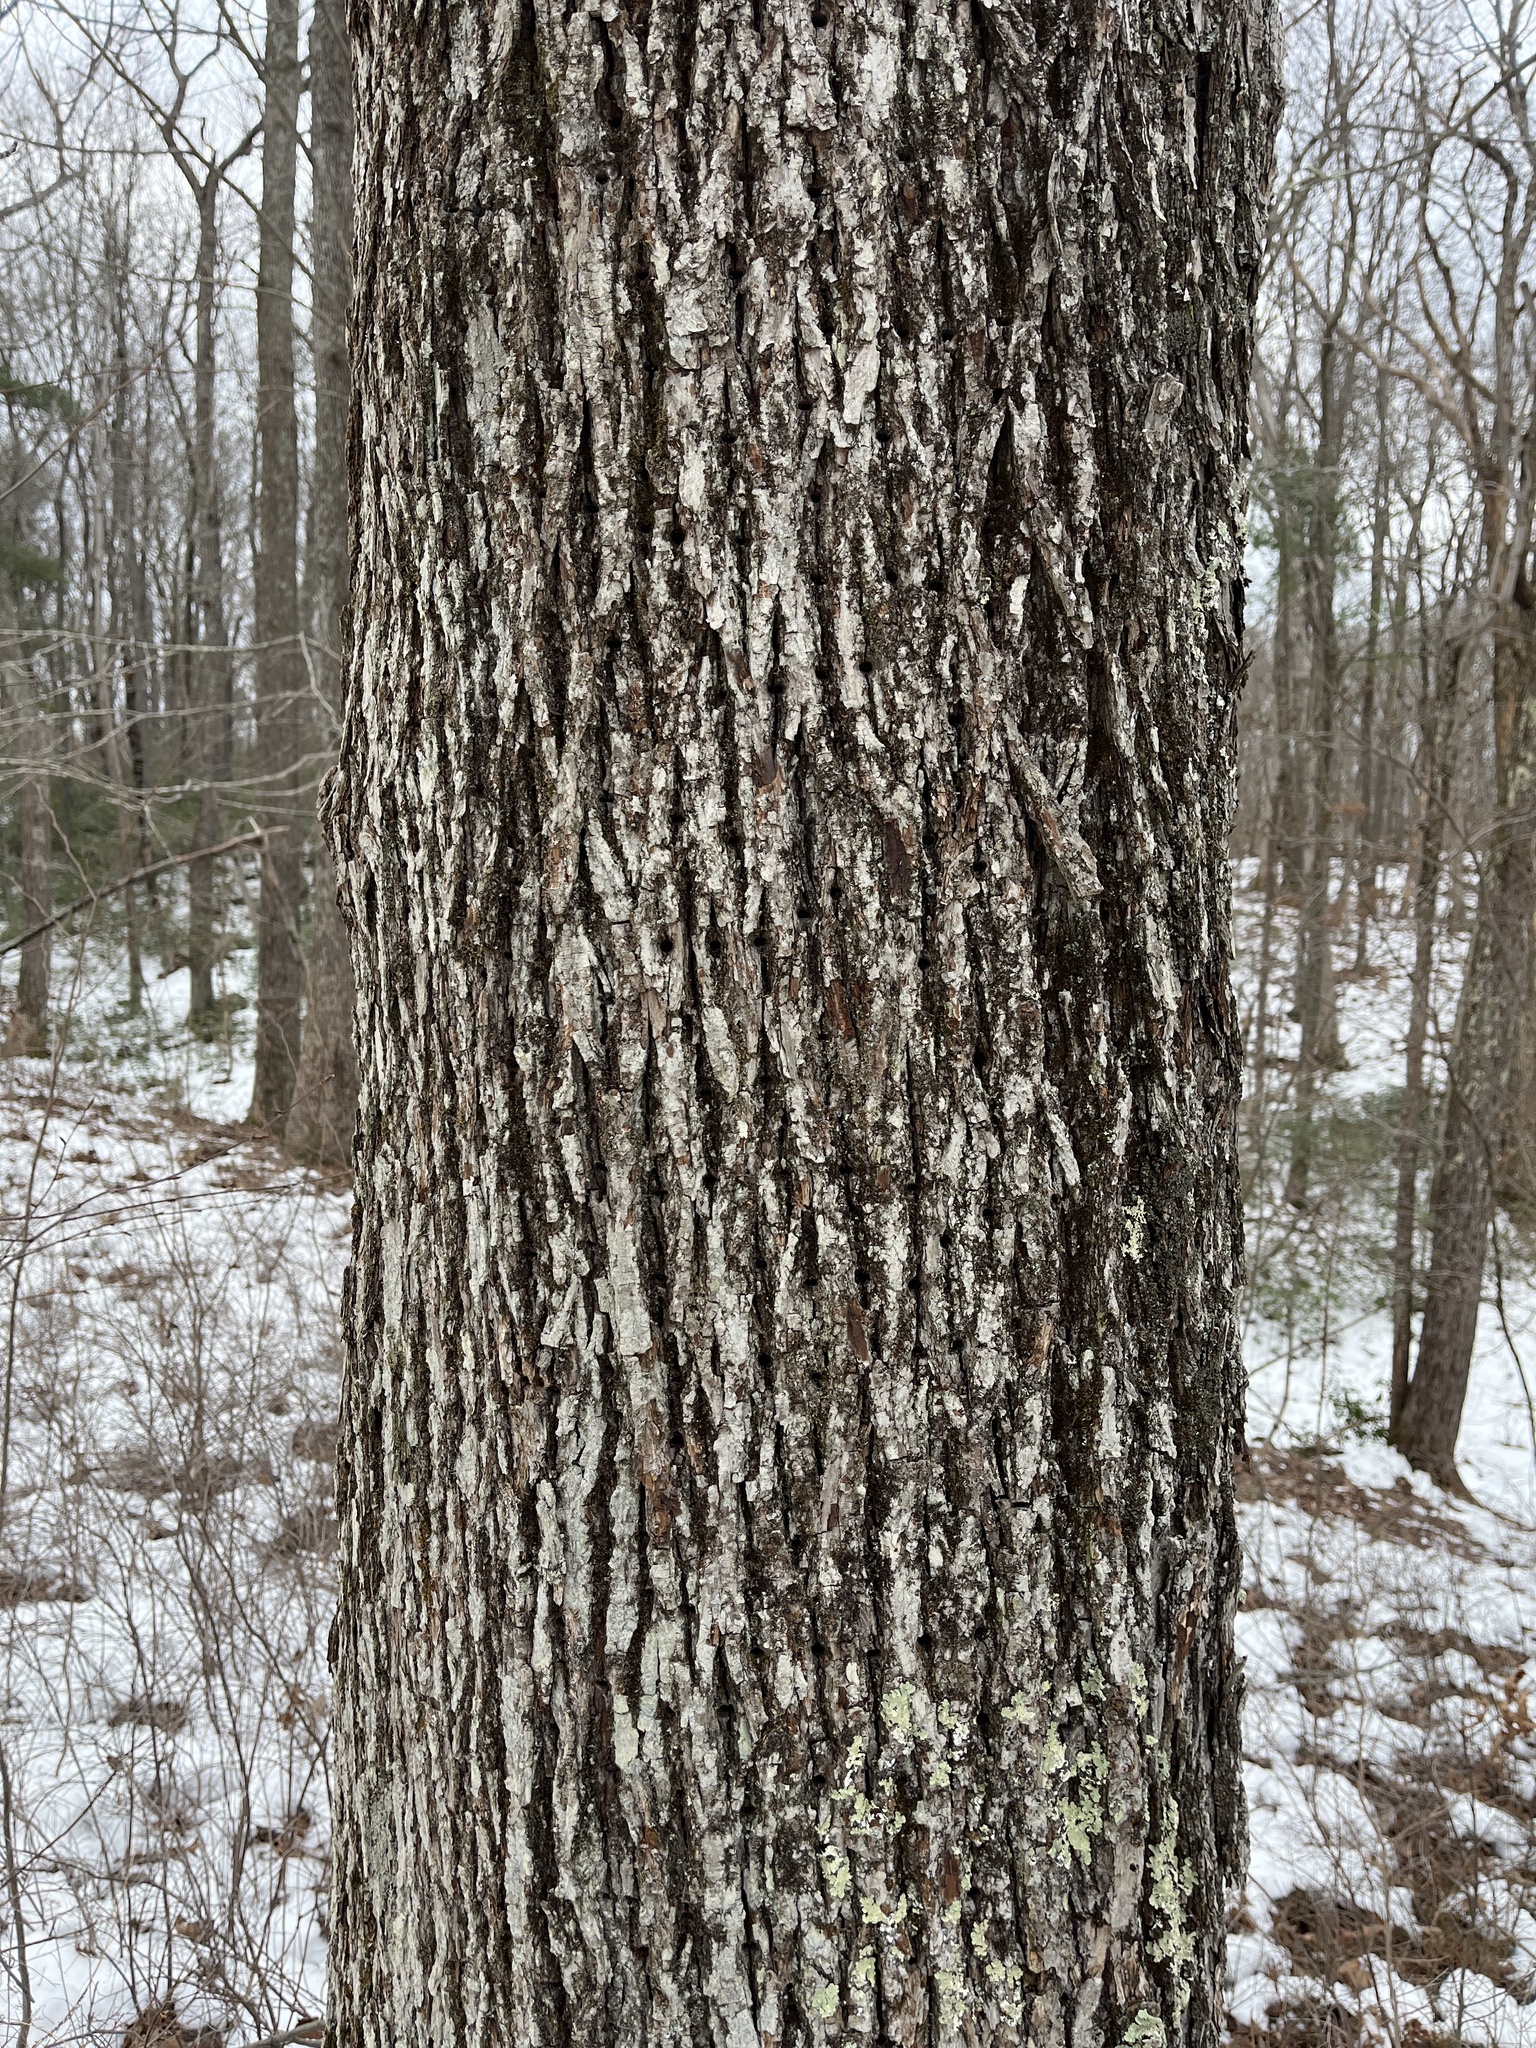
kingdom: Plantae
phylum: Tracheophyta
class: Magnoliopsida
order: Fagales
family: Juglandaceae
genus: Carya
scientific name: Carya glabra
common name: Pignut hickory
